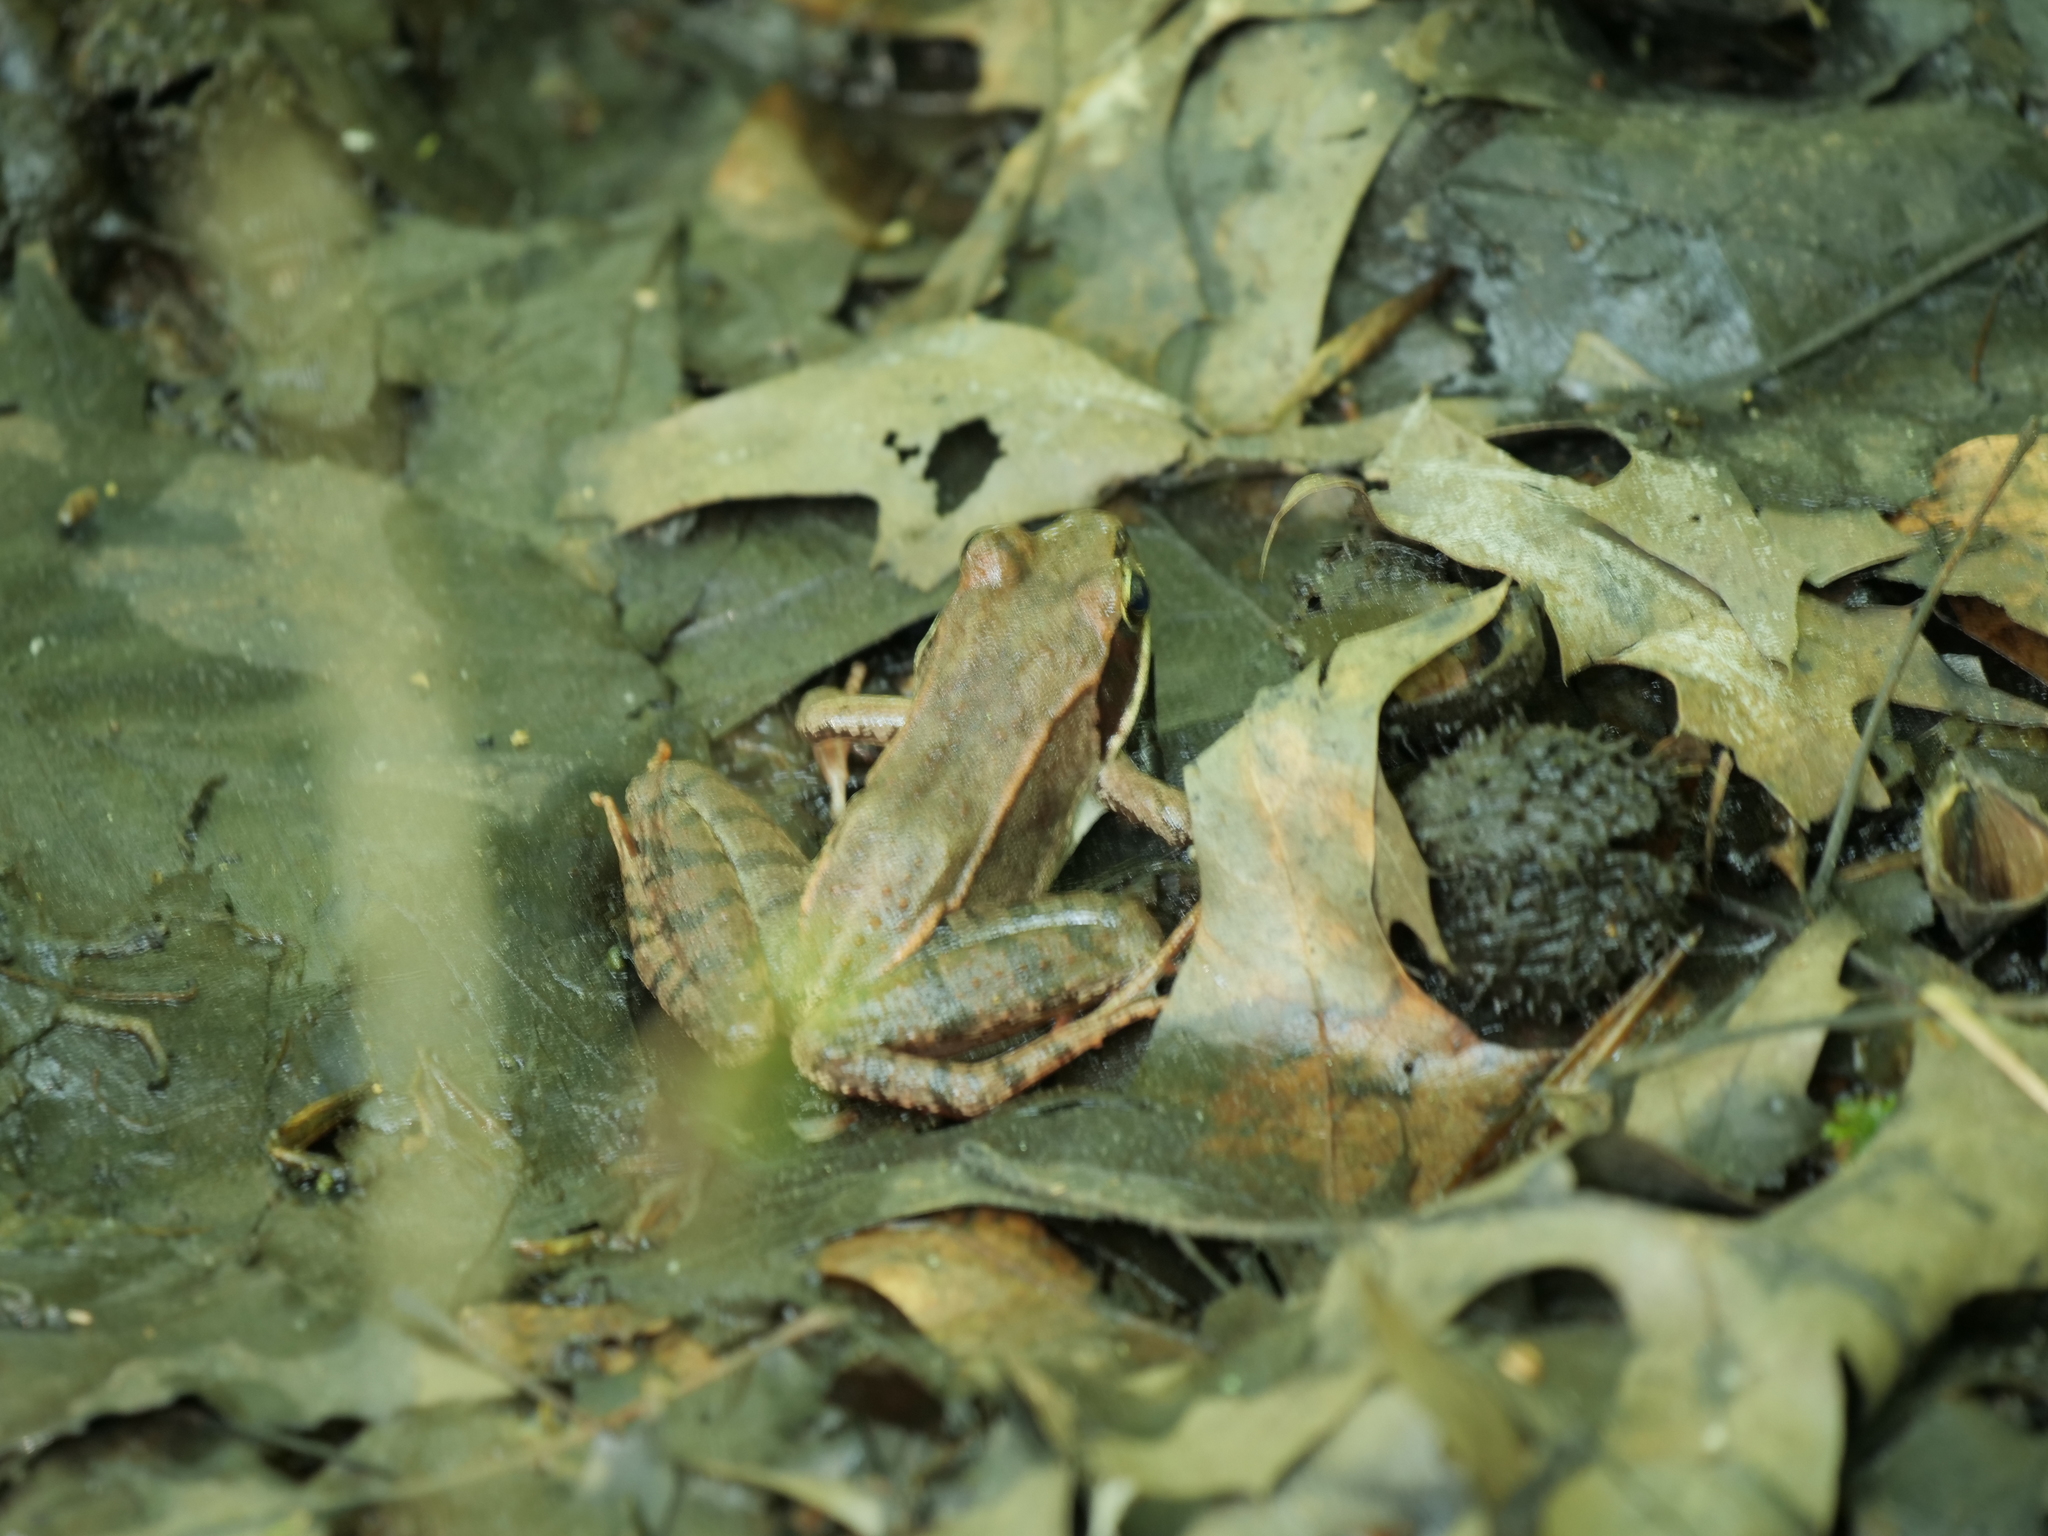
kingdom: Animalia
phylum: Chordata
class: Amphibia
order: Anura
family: Ranidae
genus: Lithobates
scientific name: Lithobates sylvaticus
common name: Wood frog
